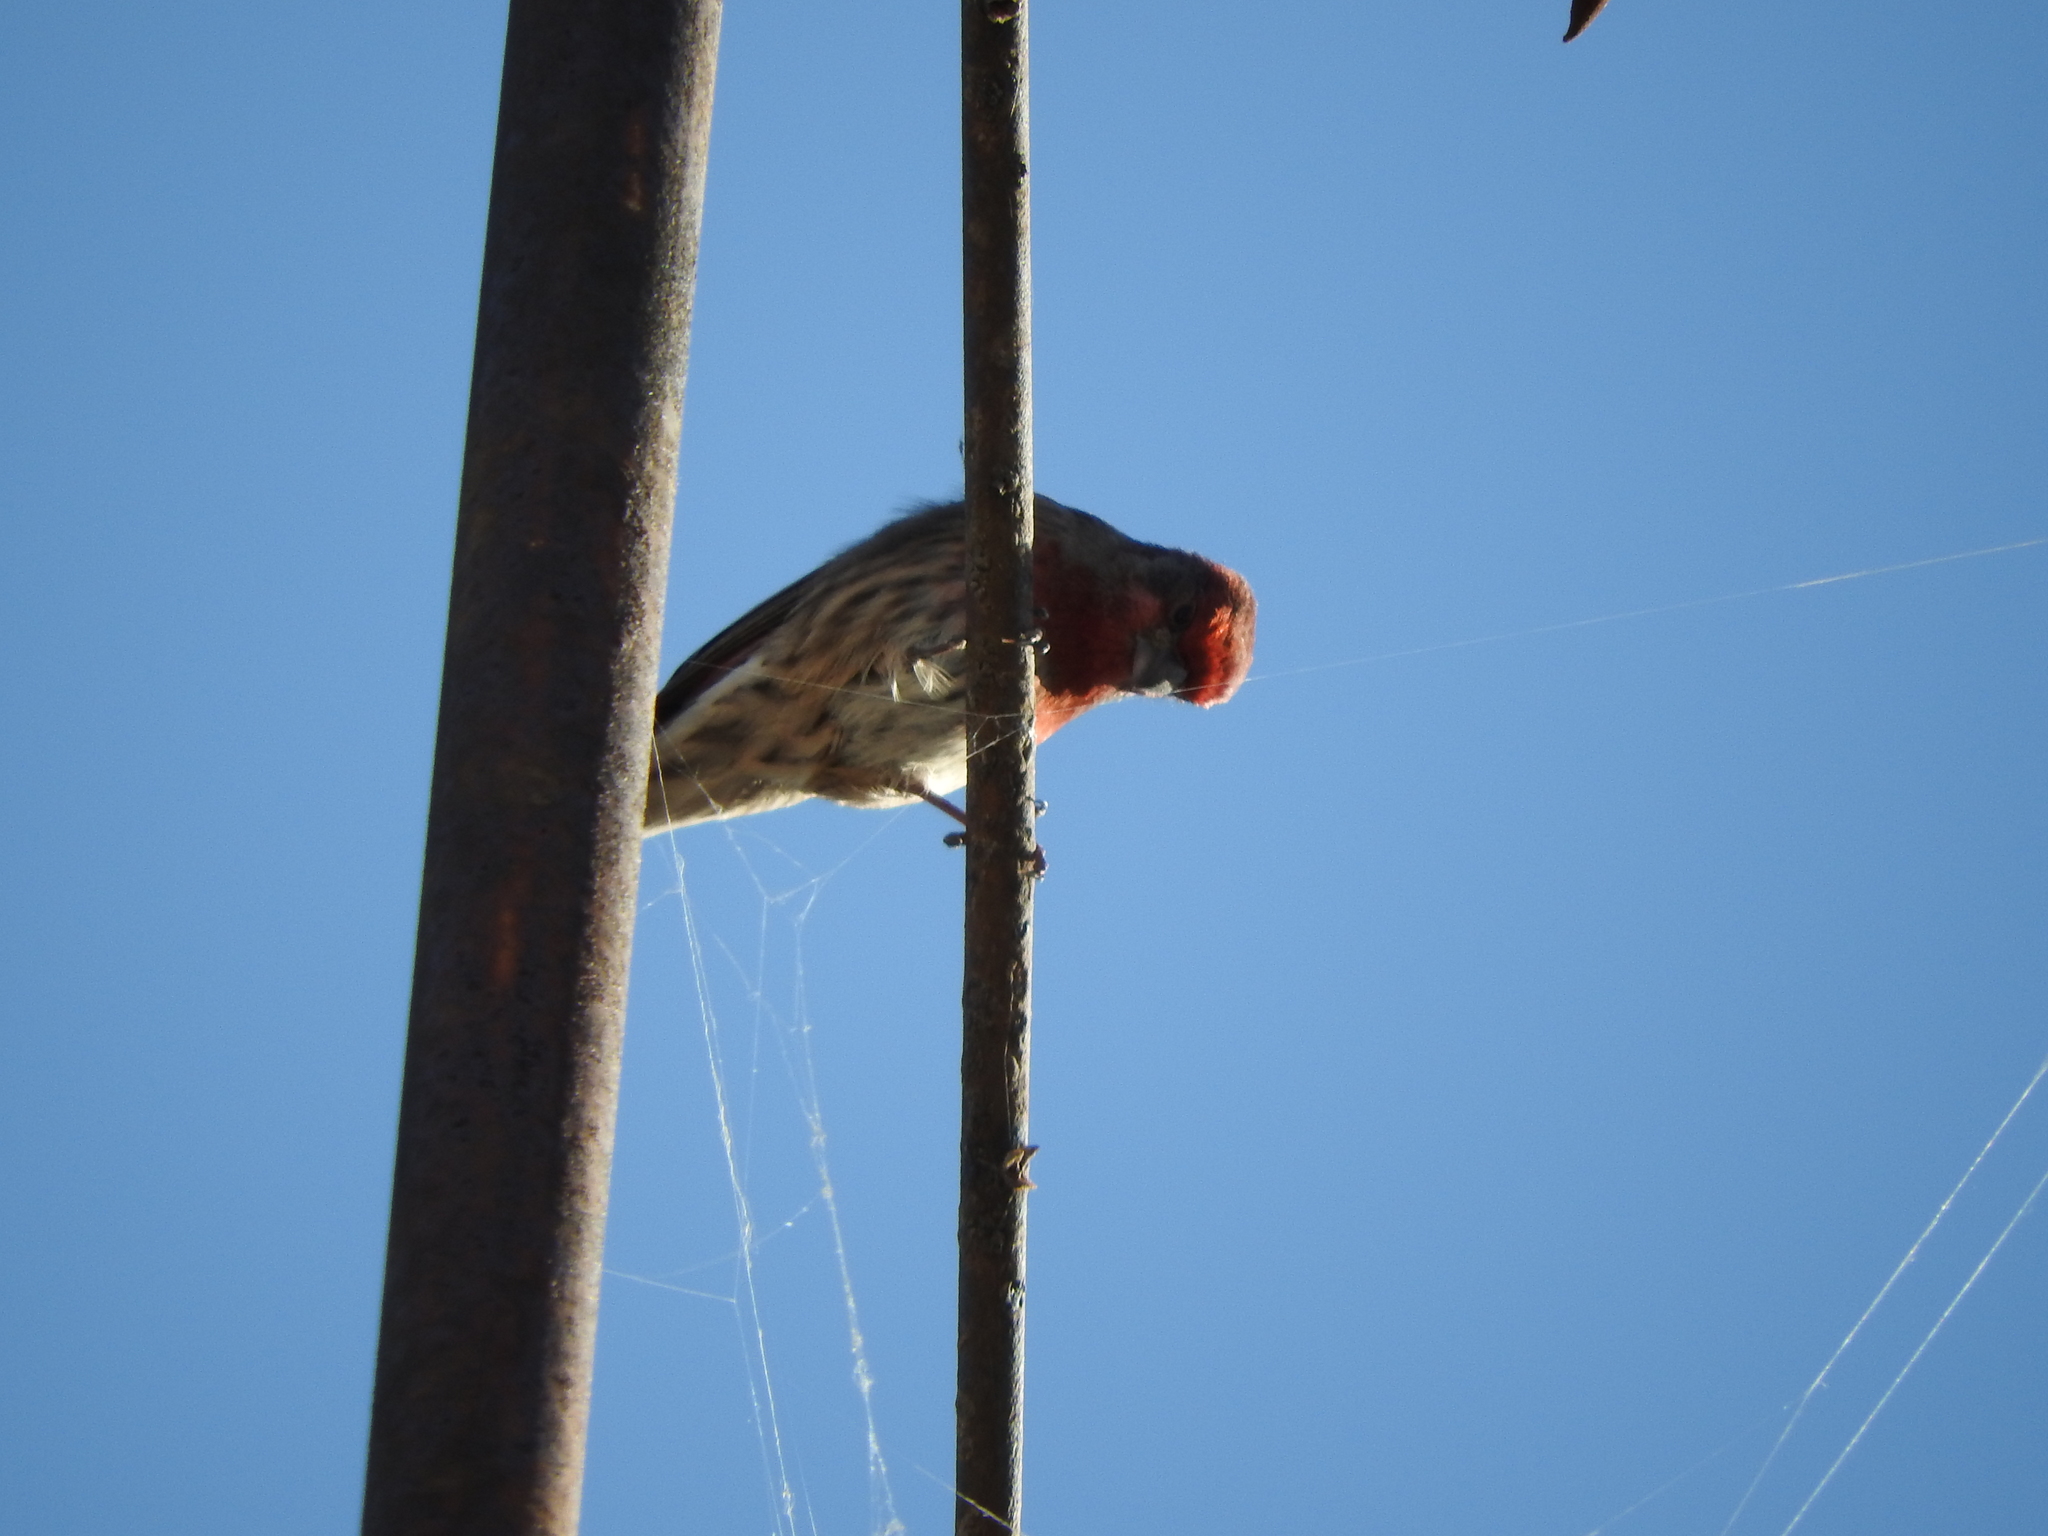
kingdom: Animalia
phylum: Chordata
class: Aves
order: Passeriformes
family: Fringillidae
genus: Haemorhous
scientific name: Haemorhous mexicanus
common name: House finch
